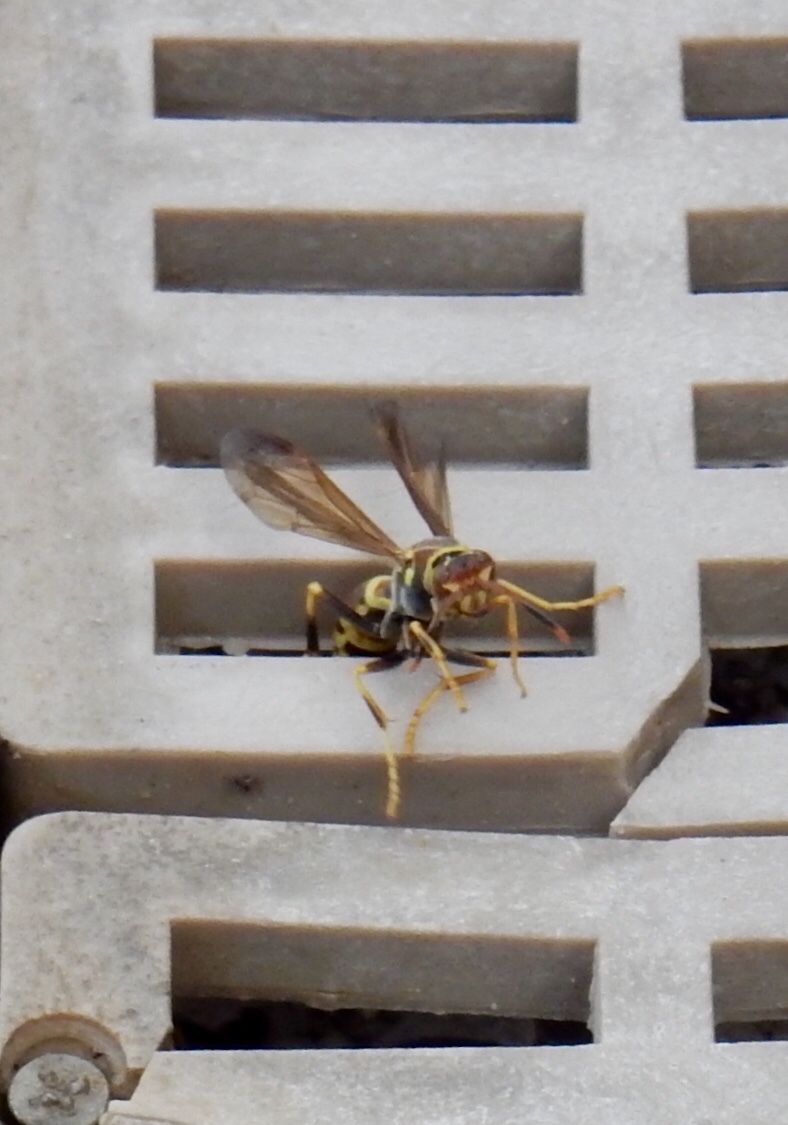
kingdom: Animalia
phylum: Arthropoda
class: Insecta
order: Hymenoptera
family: Eumenidae
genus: Polistes
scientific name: Polistes exclamans
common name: Paper wasp
